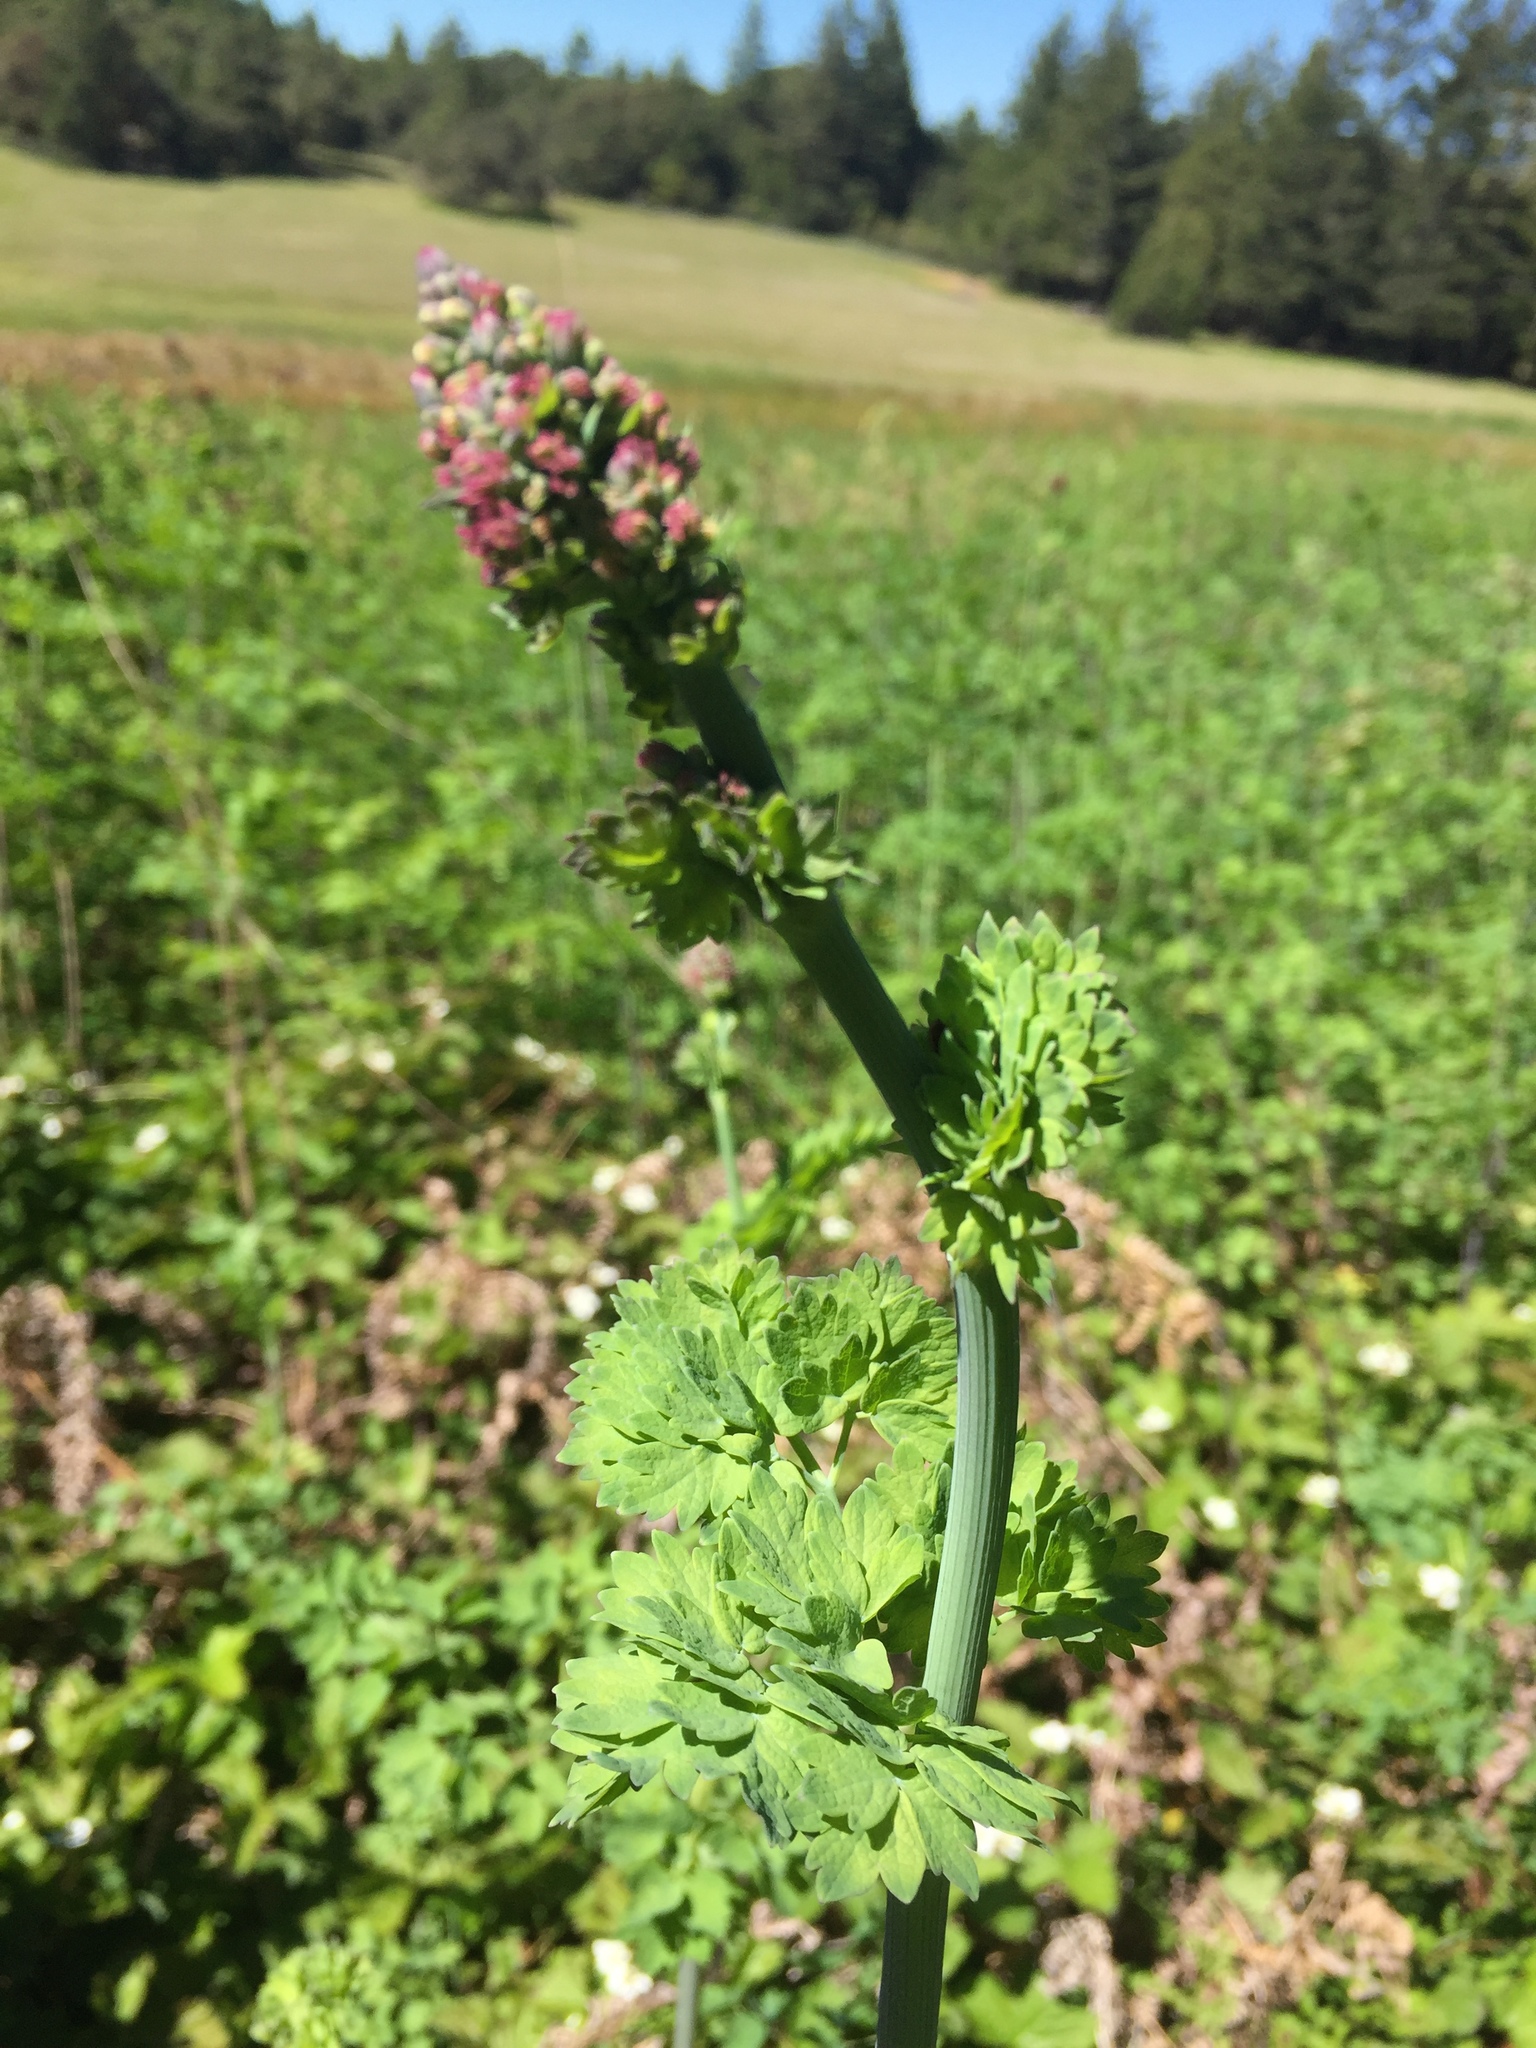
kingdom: Plantae
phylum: Tracheophyta
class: Magnoliopsida
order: Ranunculales
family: Ranunculaceae
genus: Thalictrum
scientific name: Thalictrum fendleri
